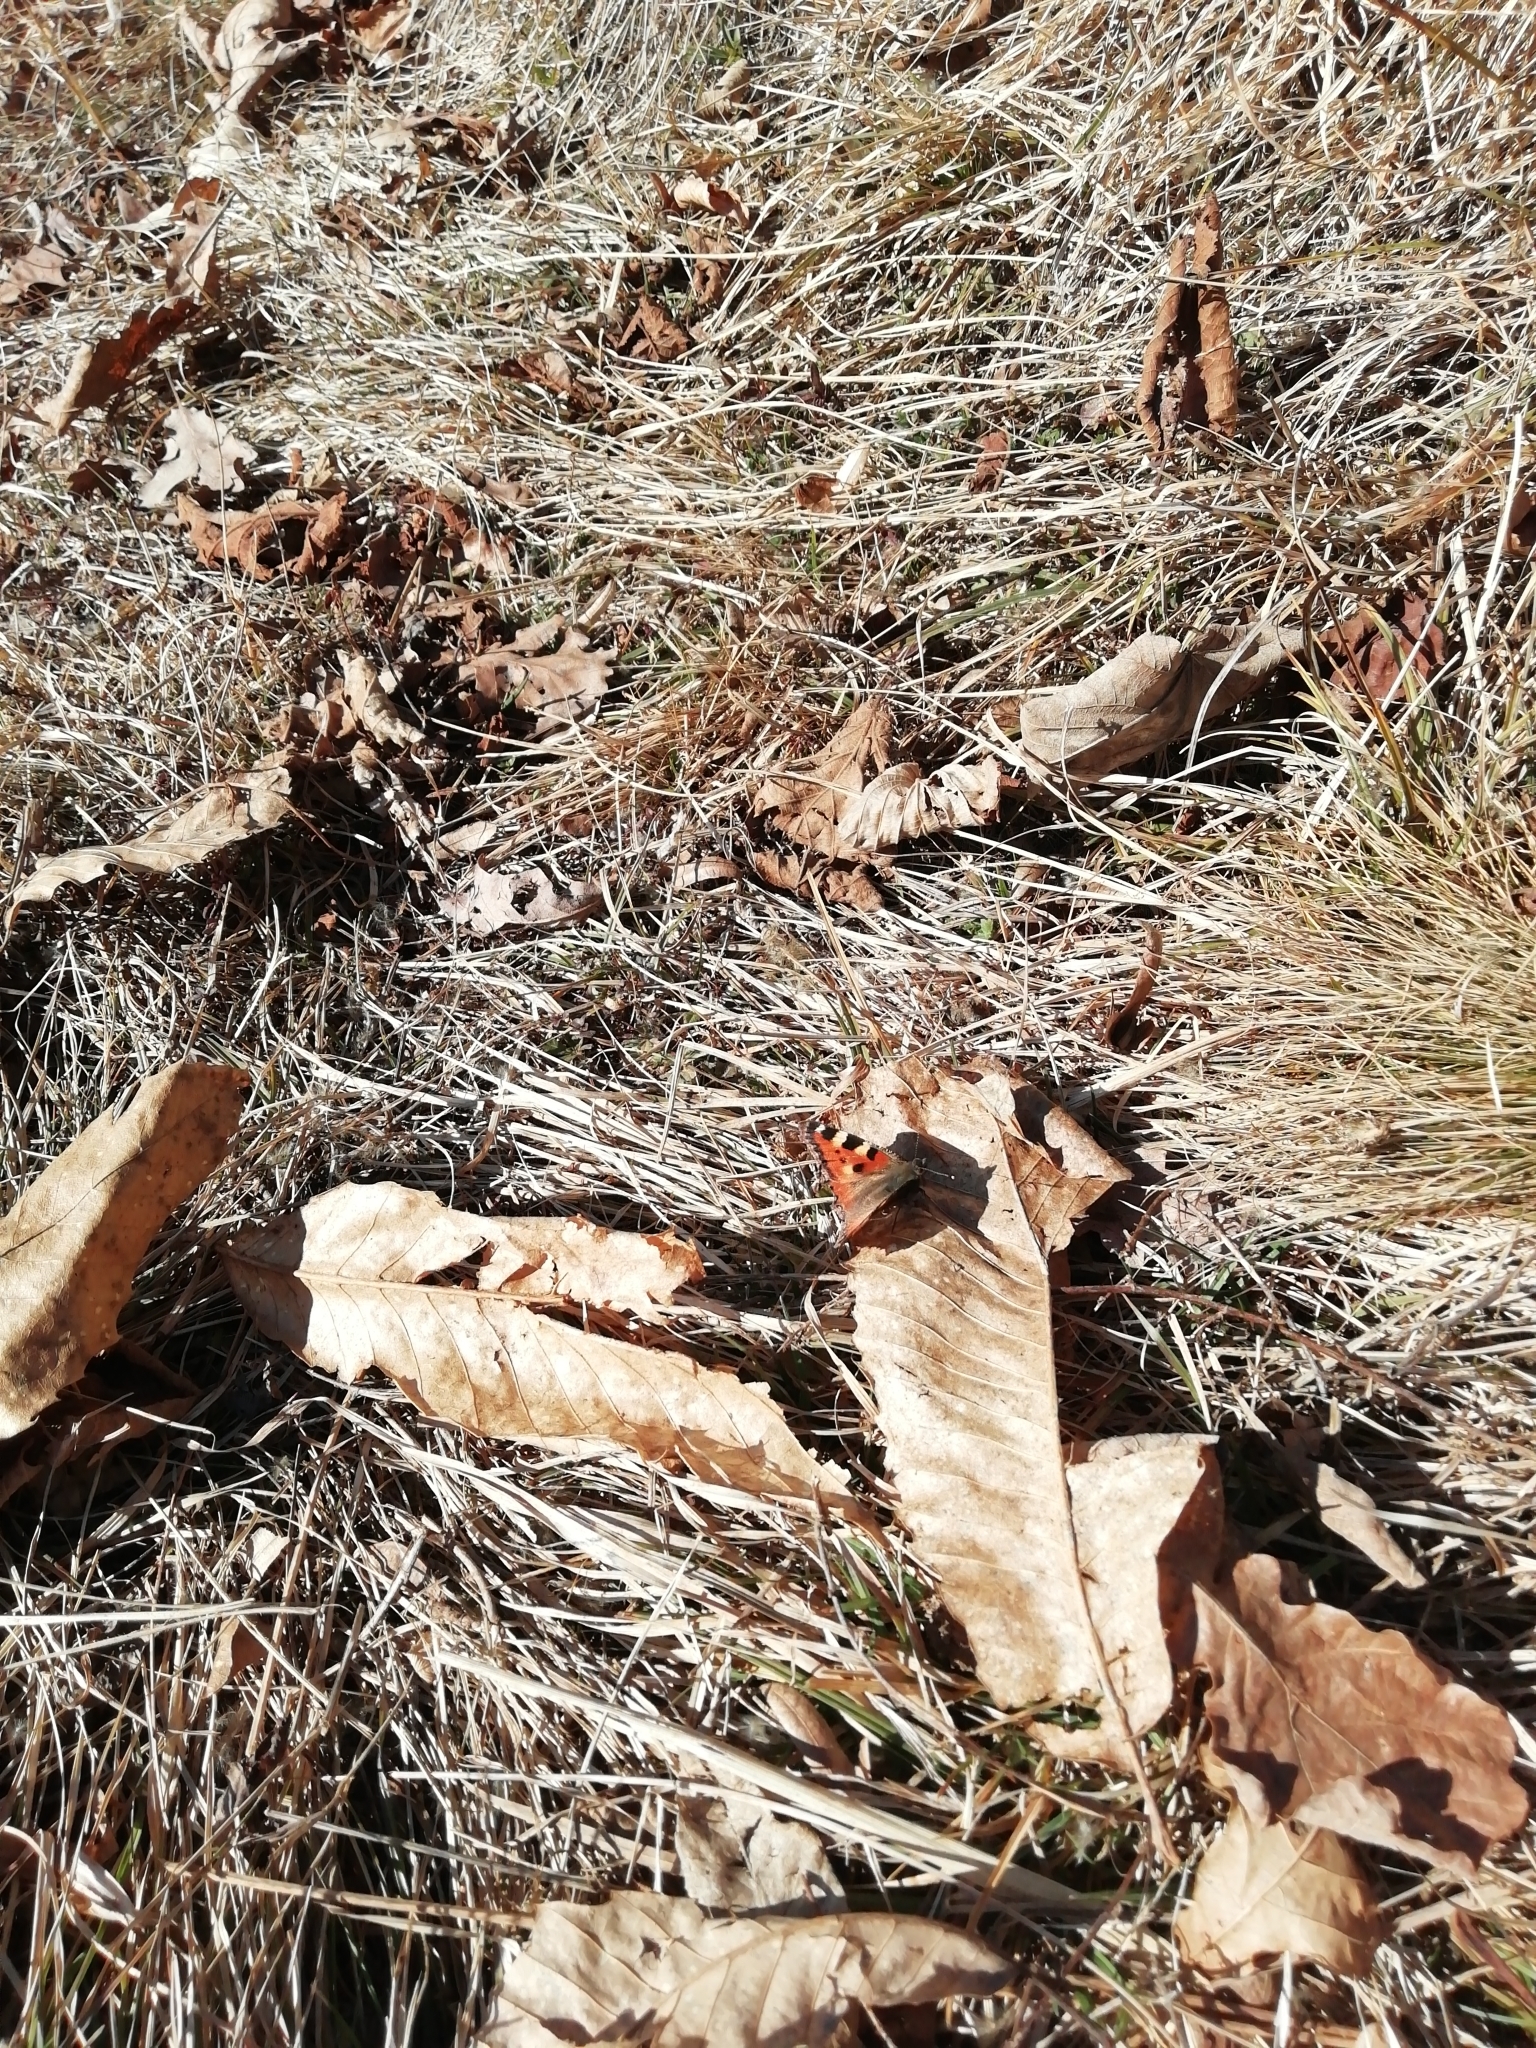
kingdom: Animalia
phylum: Arthropoda
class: Insecta
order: Lepidoptera
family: Nymphalidae
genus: Aglais
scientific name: Aglais urticae
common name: Small tortoiseshell
